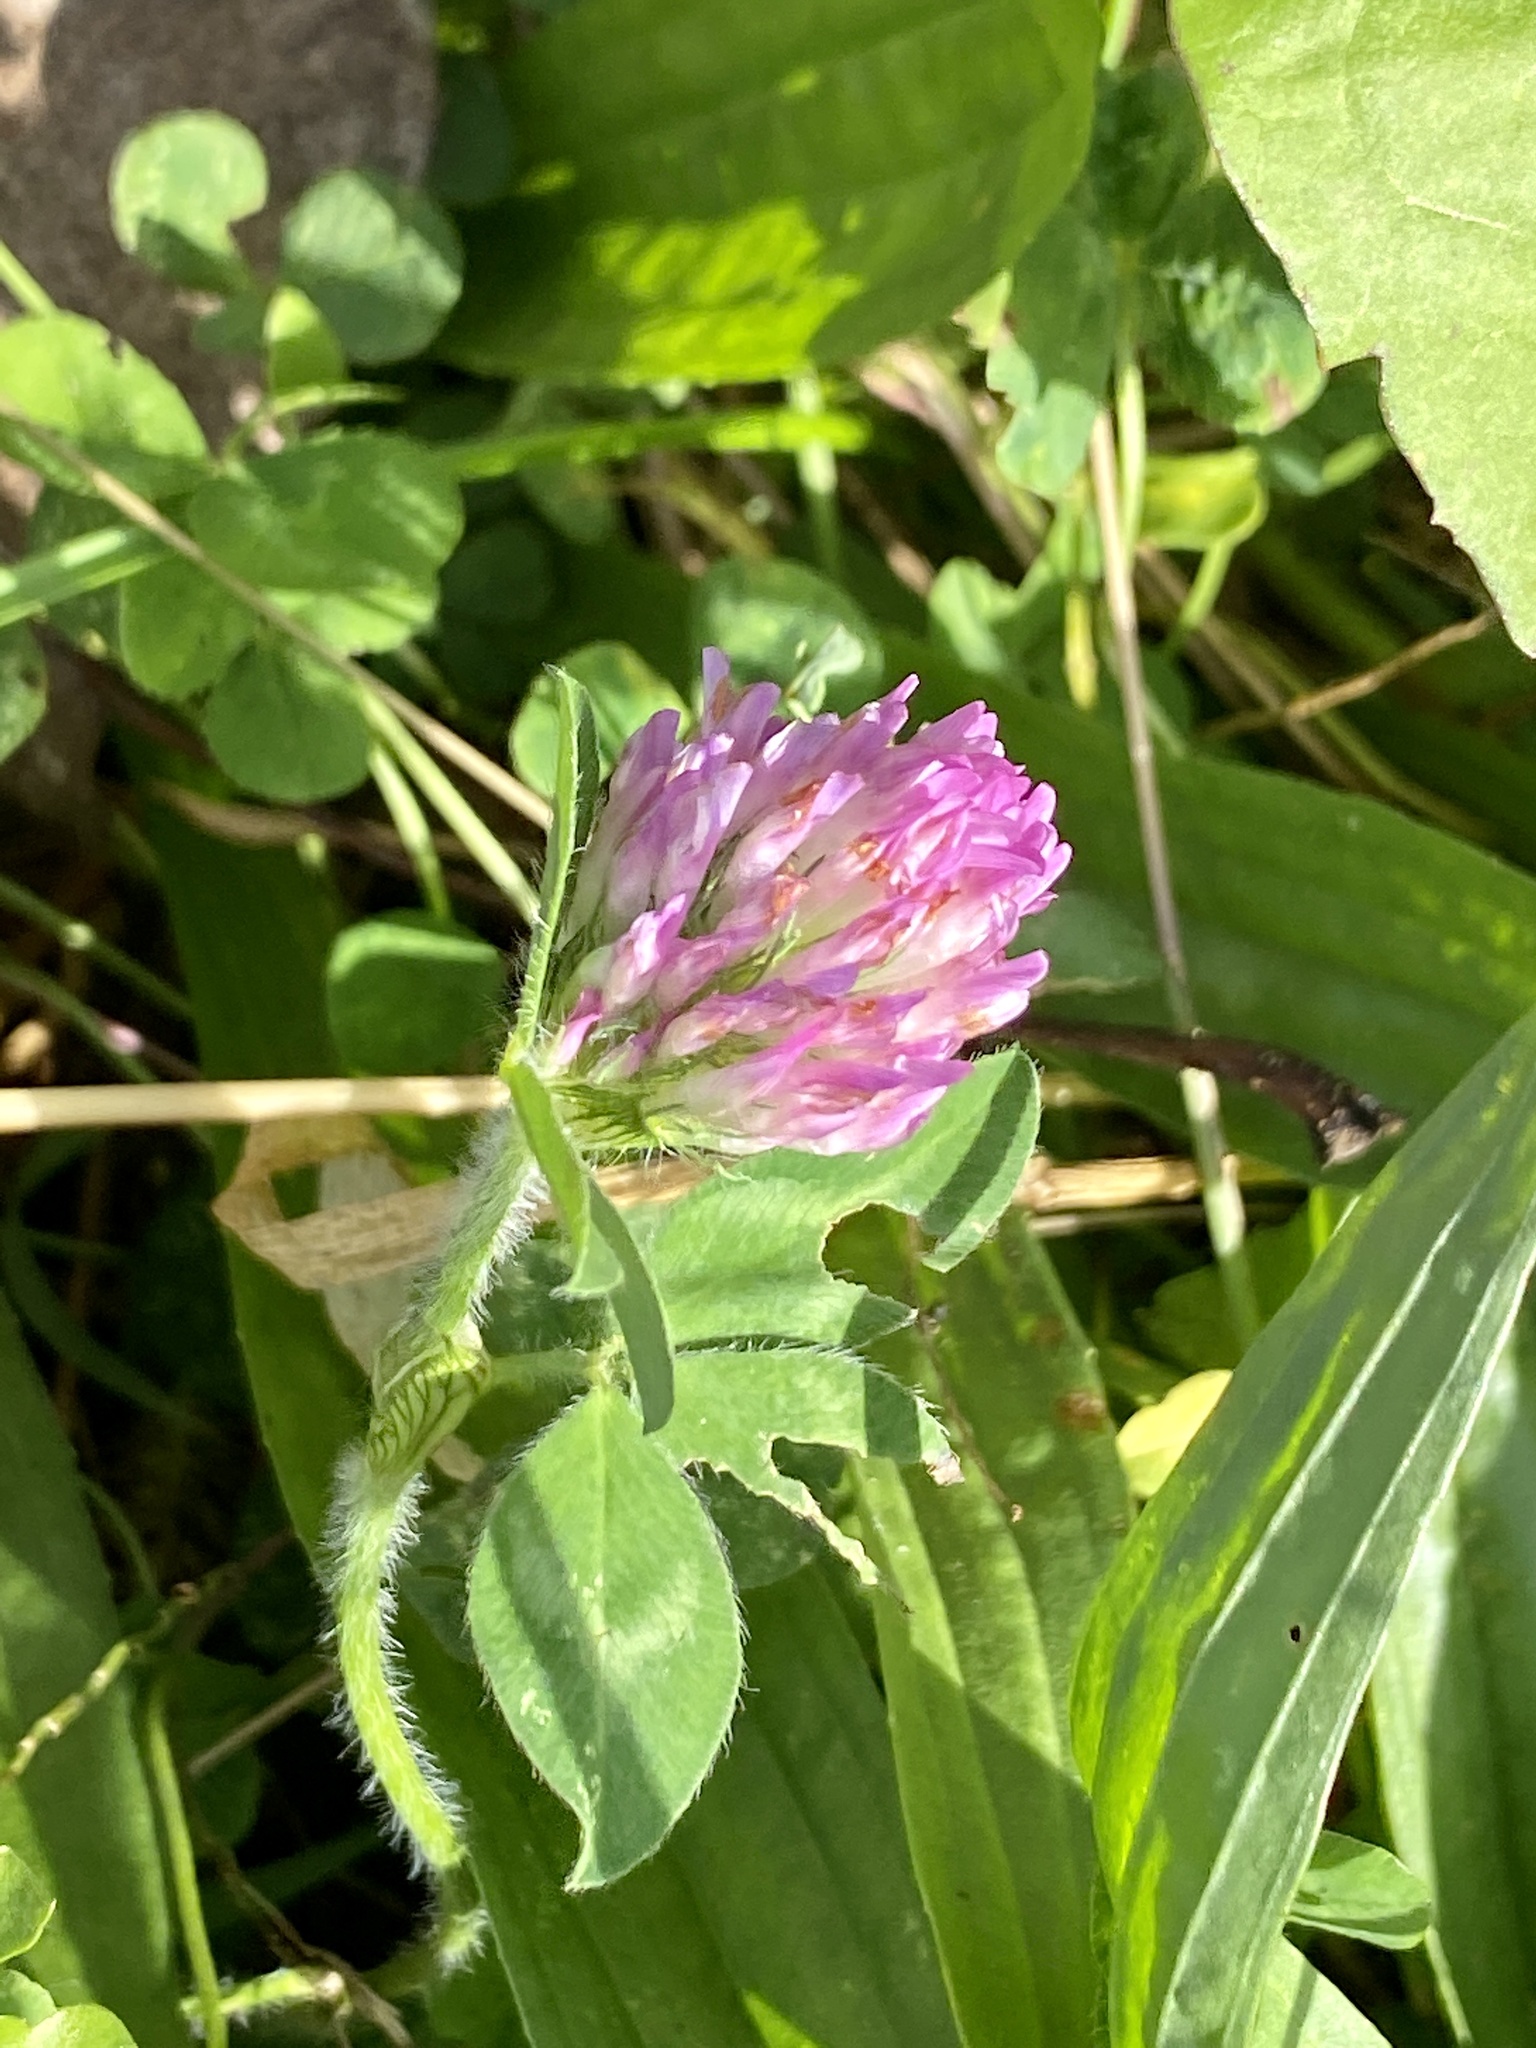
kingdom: Plantae
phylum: Tracheophyta
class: Magnoliopsida
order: Fabales
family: Fabaceae
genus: Trifolium
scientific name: Trifolium pratense
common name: Red clover
